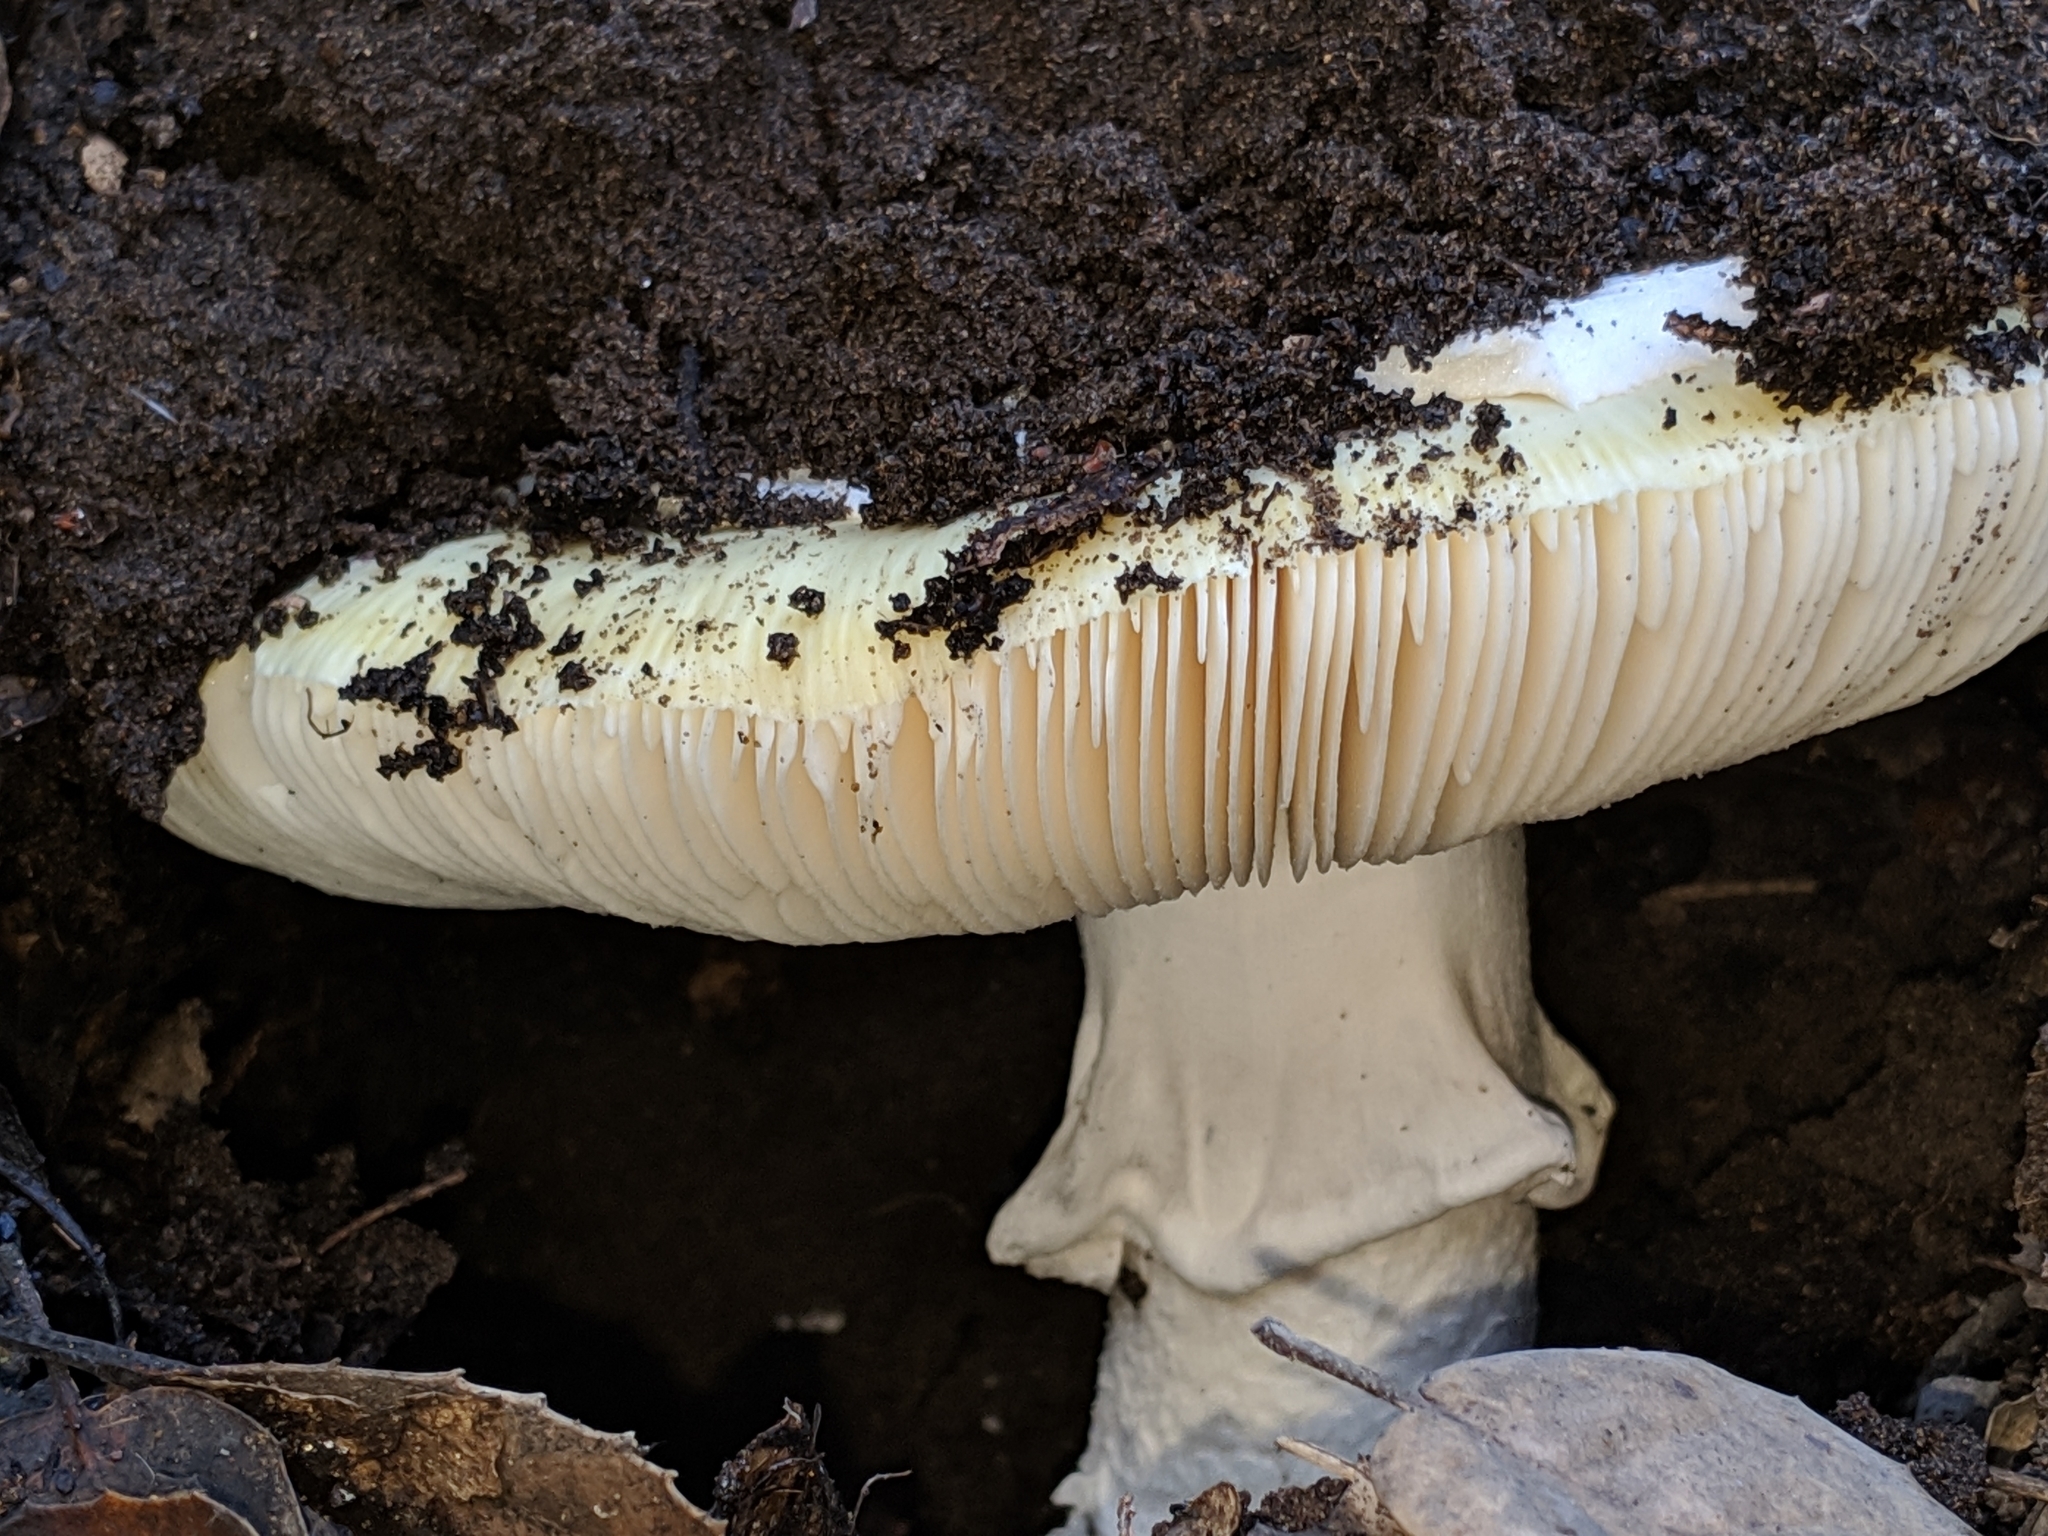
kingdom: Fungi
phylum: Basidiomycota
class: Agaricomycetes
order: Agaricales
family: Amanitaceae
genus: Amanita
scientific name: Amanita vernicoccora
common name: Spring coccora
